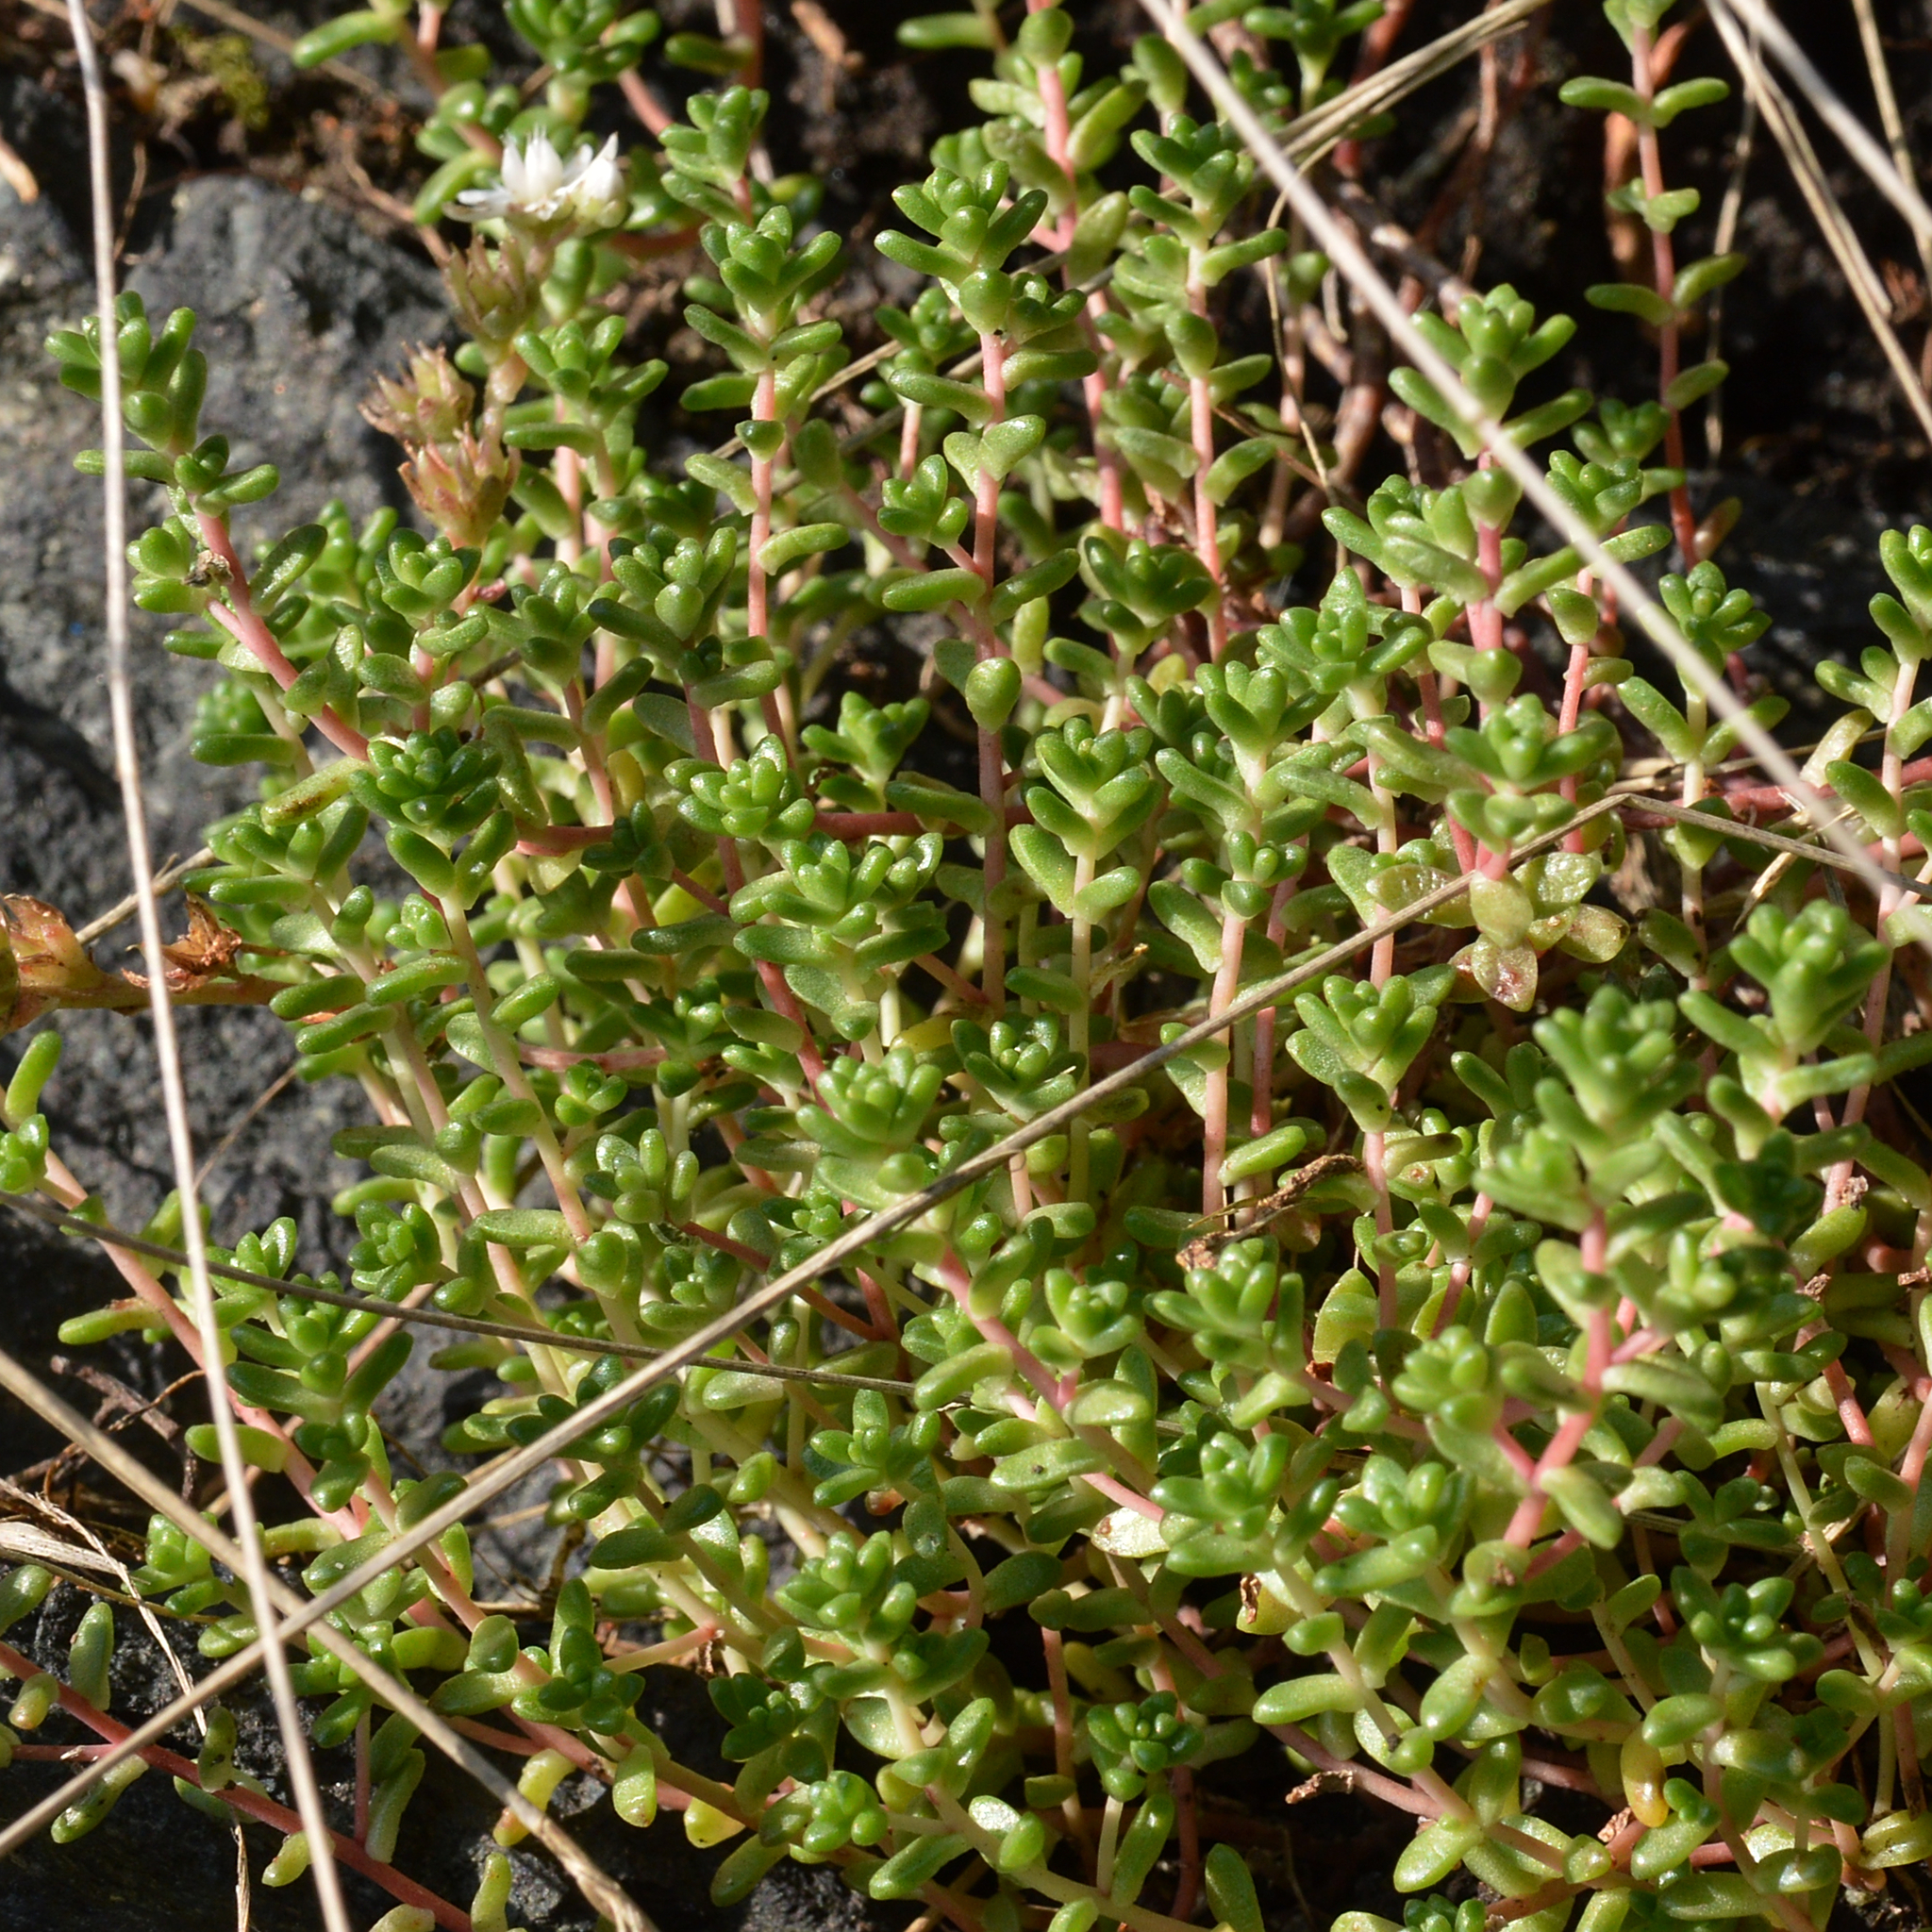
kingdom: Plantae
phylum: Tracheophyta
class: Magnoliopsida
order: Saxifragales
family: Crassulaceae
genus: Sedum
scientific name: Sedum anglicum
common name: English stonecrop
